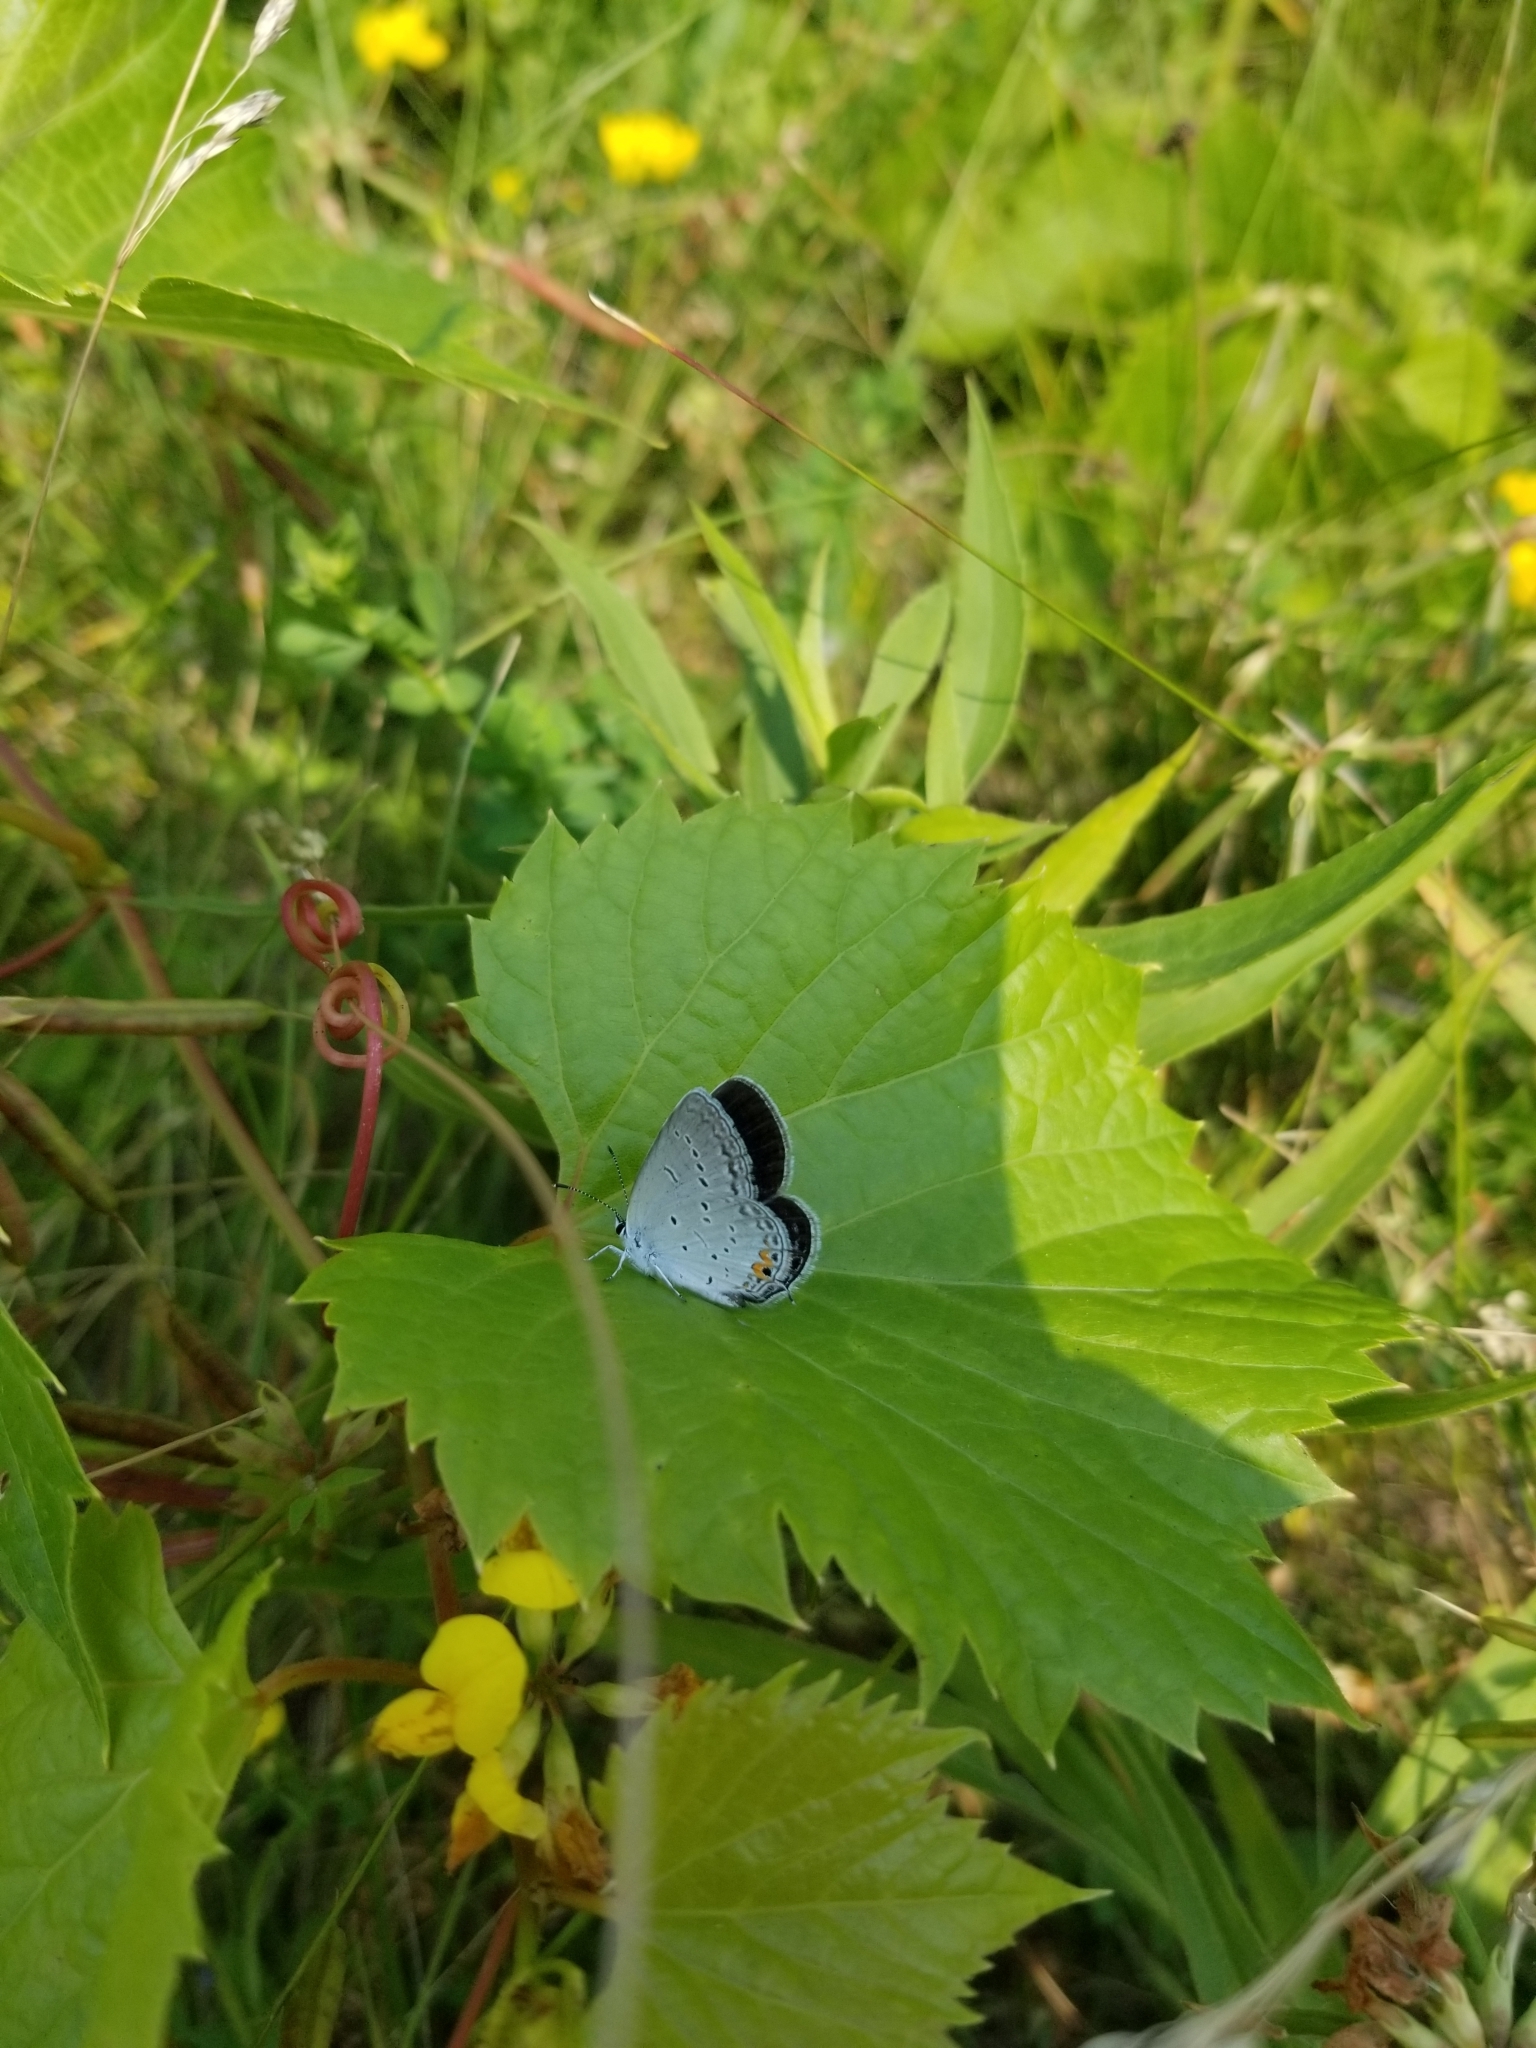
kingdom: Animalia
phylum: Arthropoda
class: Insecta
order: Lepidoptera
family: Lycaenidae
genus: Elkalyce
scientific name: Elkalyce comyntas
